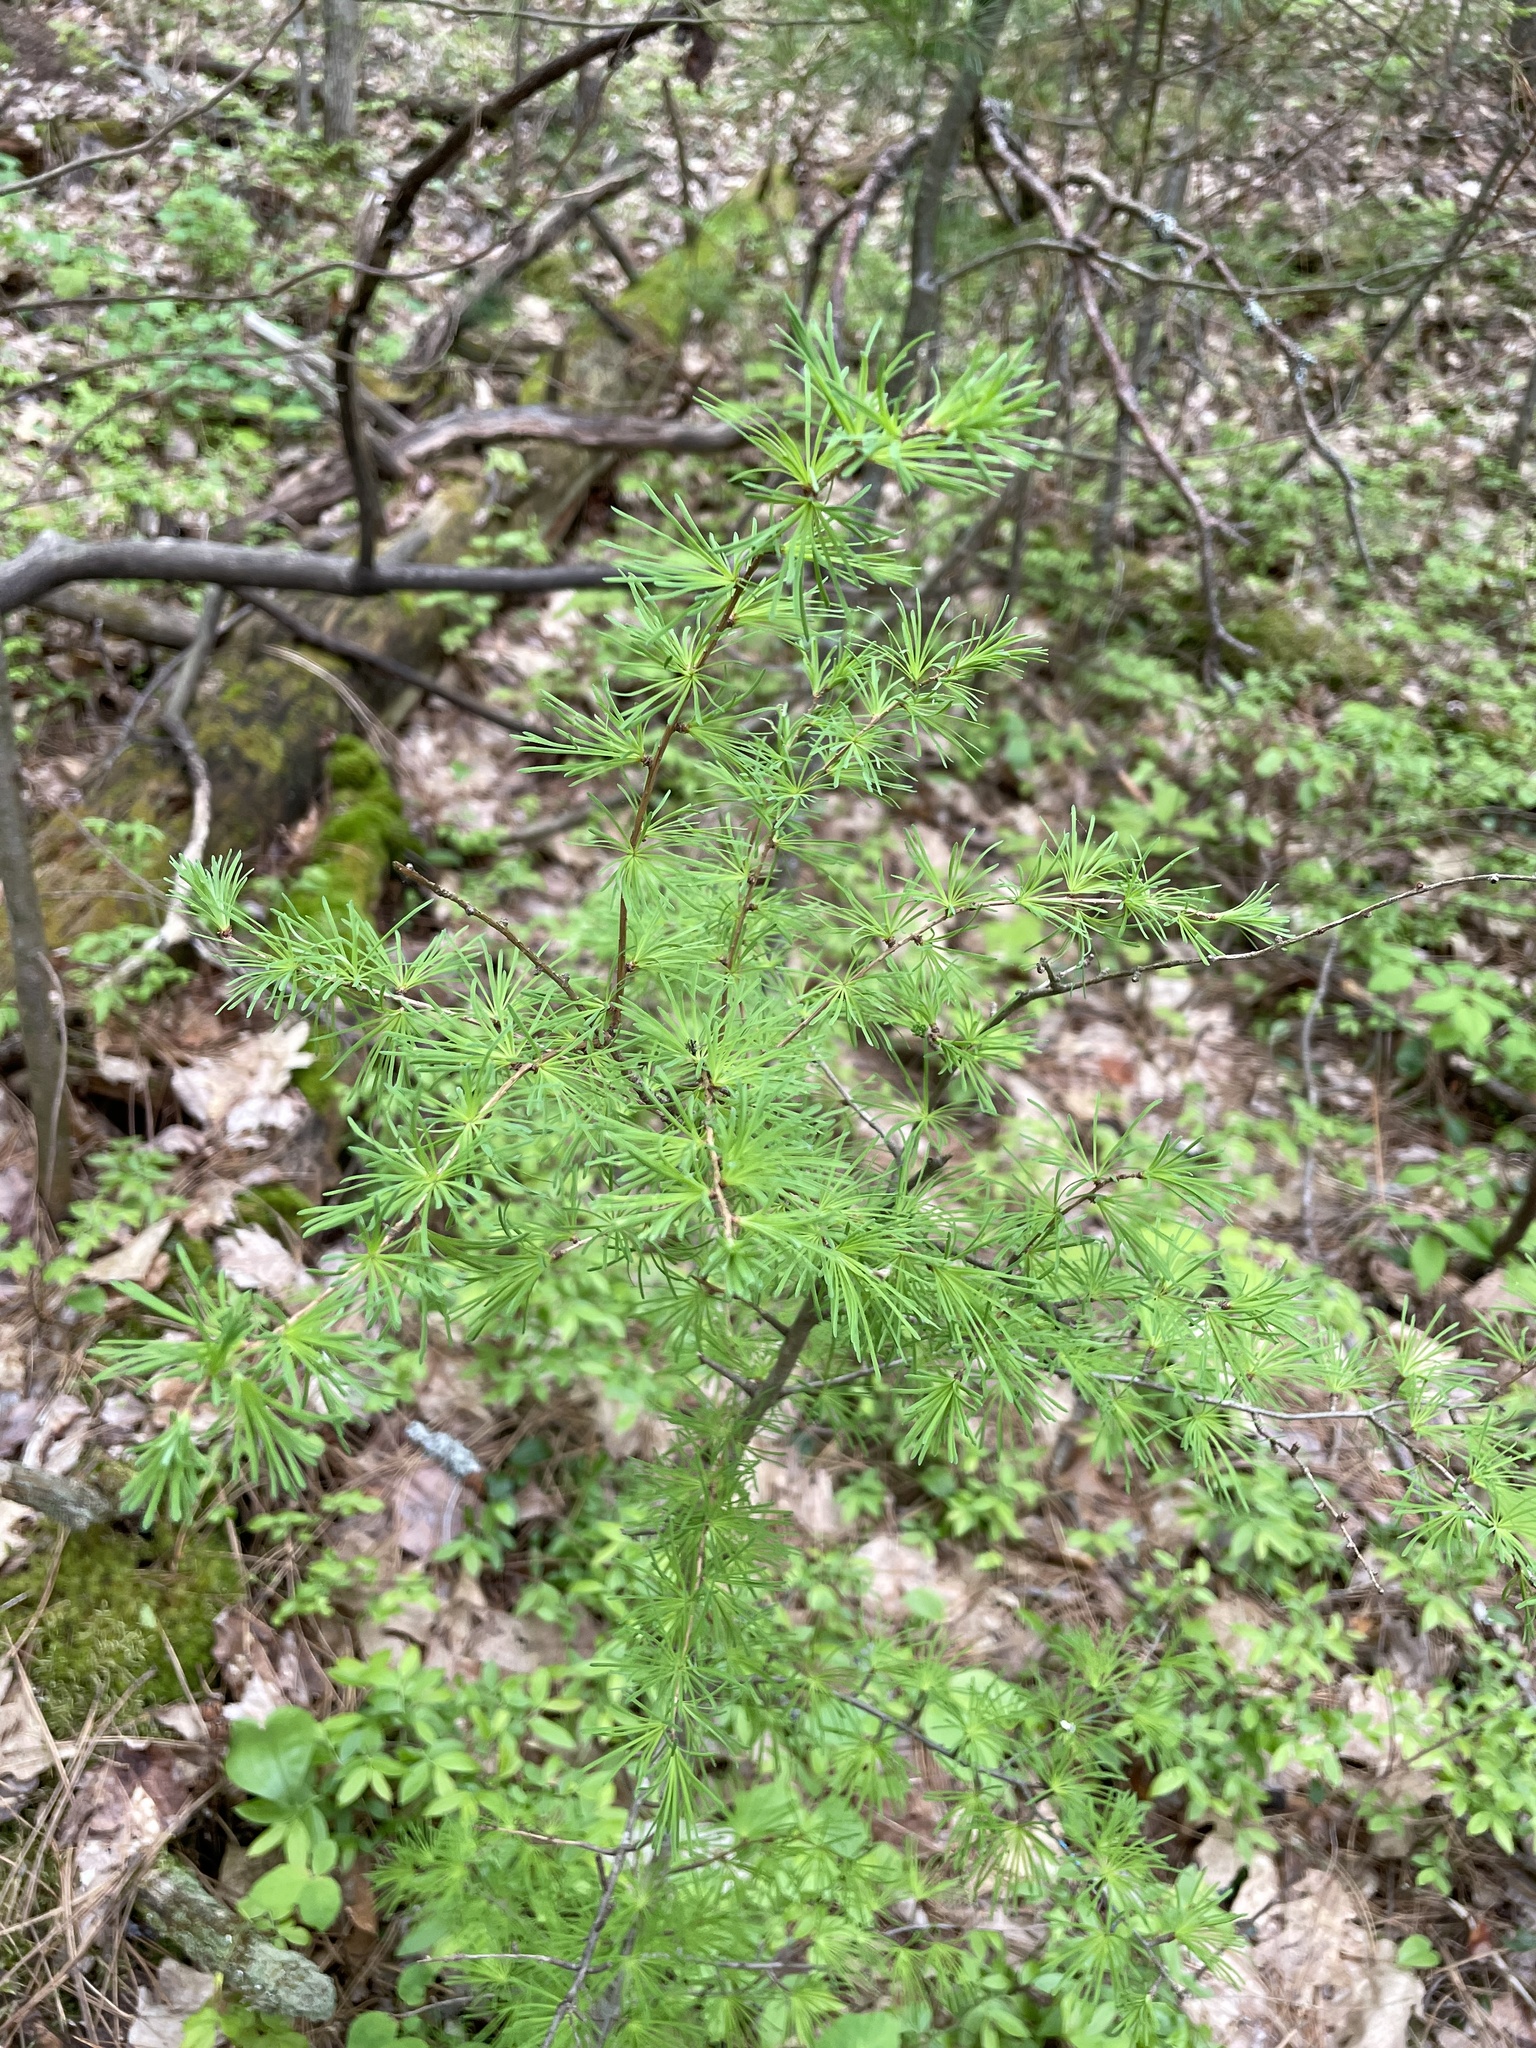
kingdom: Plantae
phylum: Tracheophyta
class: Pinopsida
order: Pinales
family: Pinaceae
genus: Larix
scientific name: Larix laricina
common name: American larch
